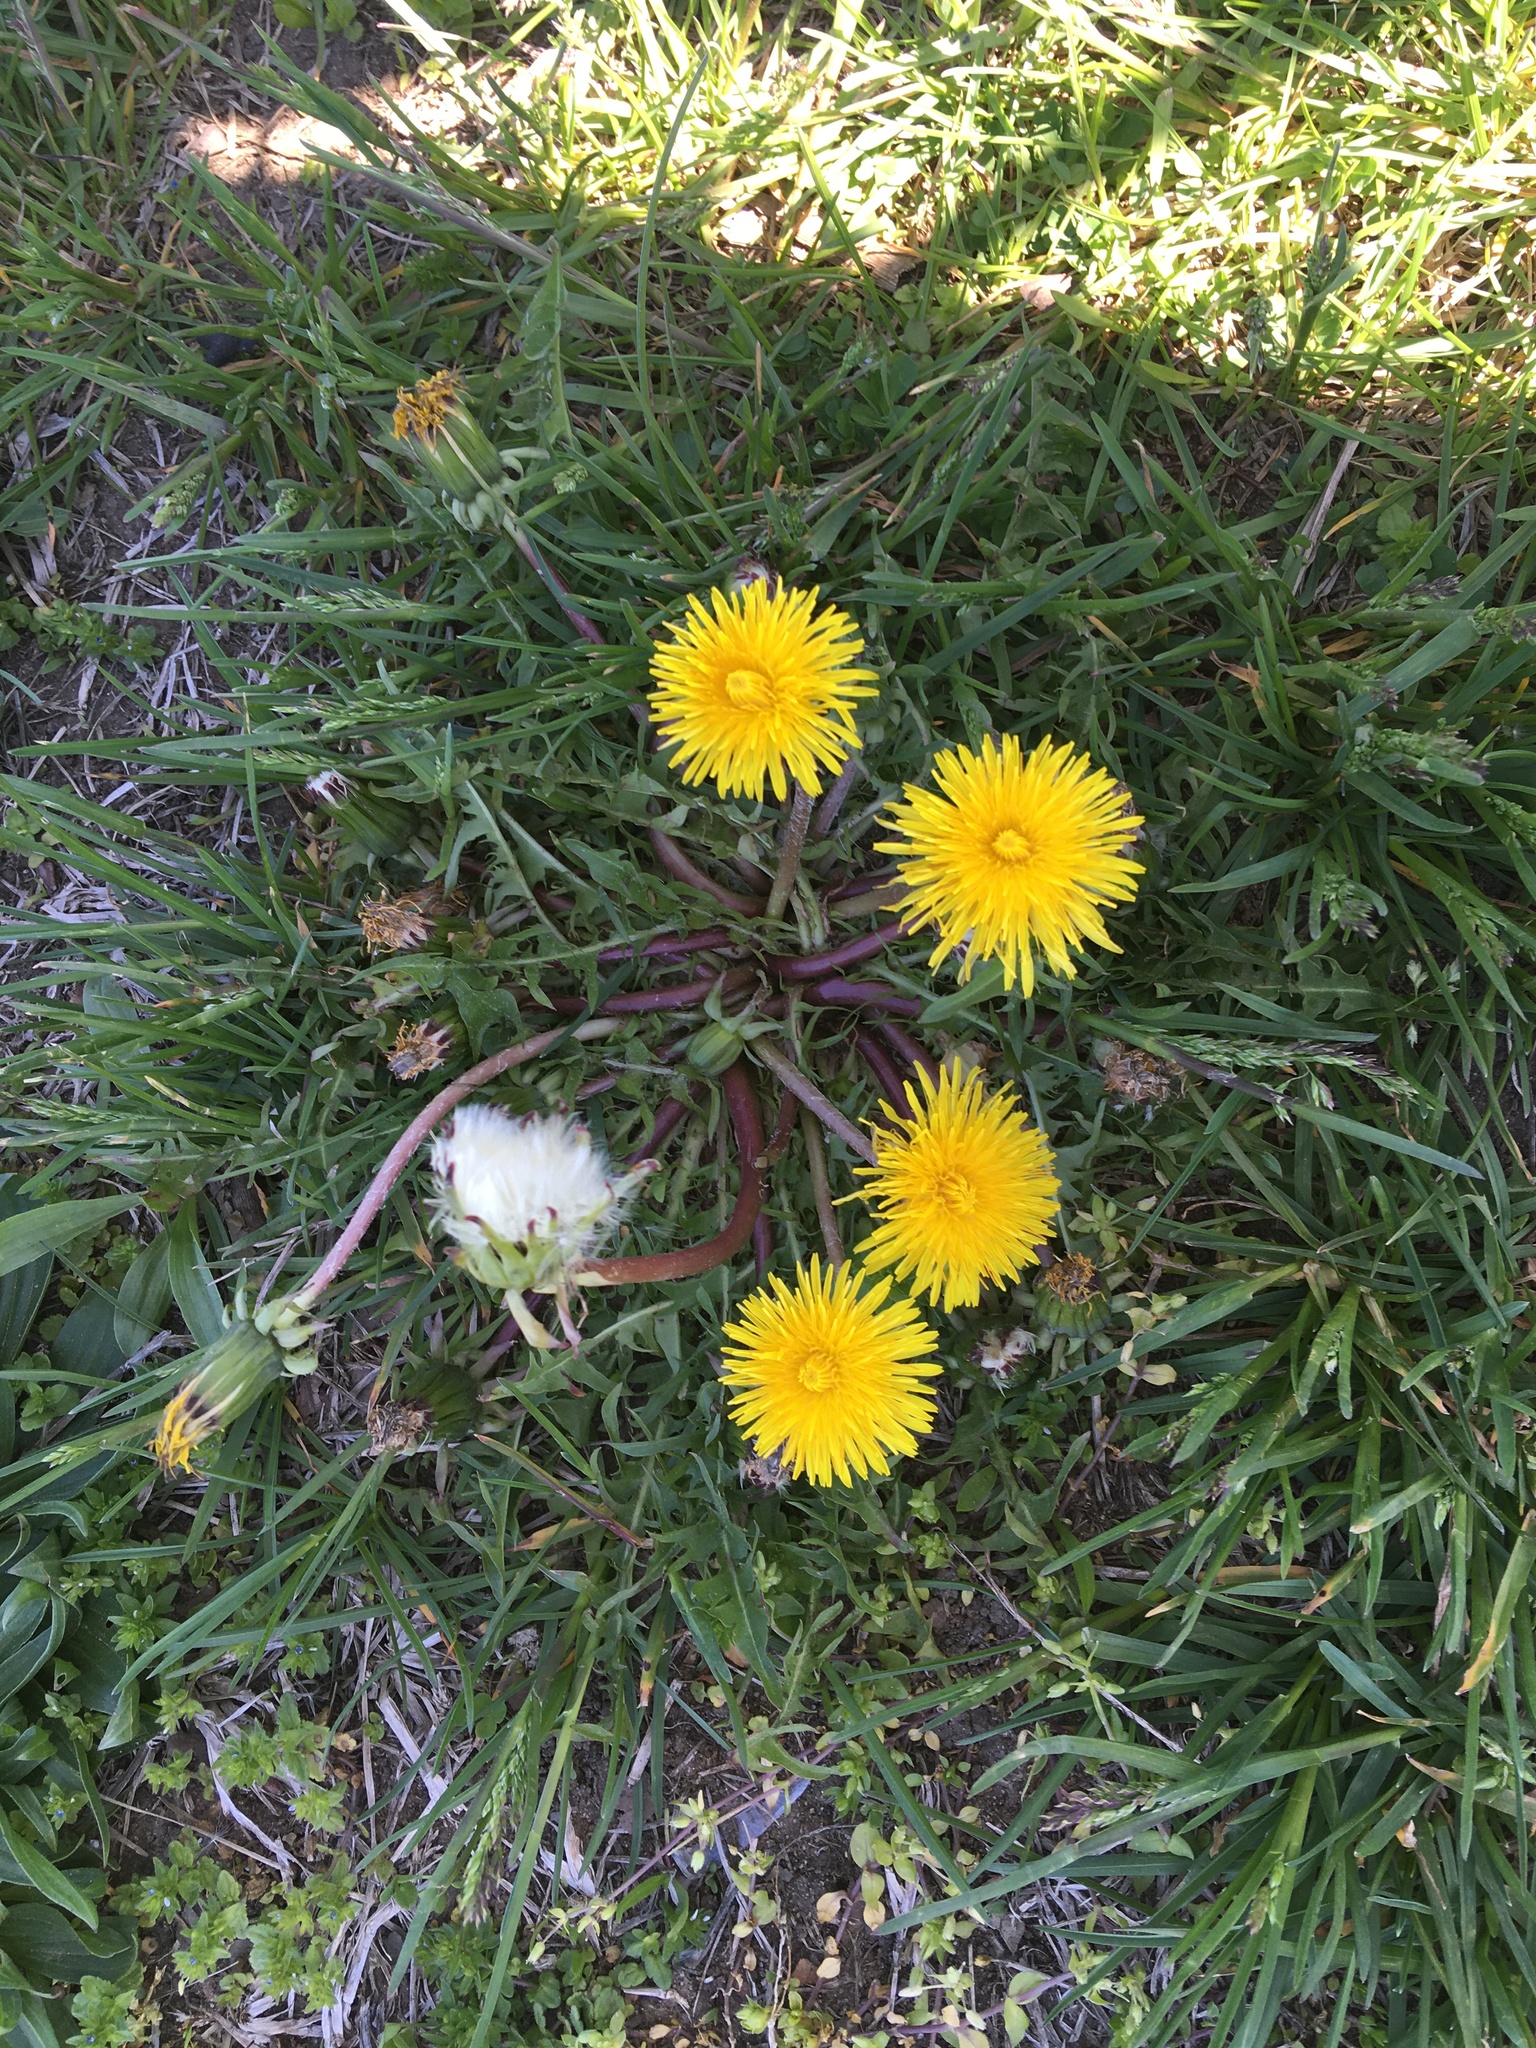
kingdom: Plantae
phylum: Tracheophyta
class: Magnoliopsida
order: Asterales
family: Asteraceae
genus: Taraxacum
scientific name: Taraxacum
